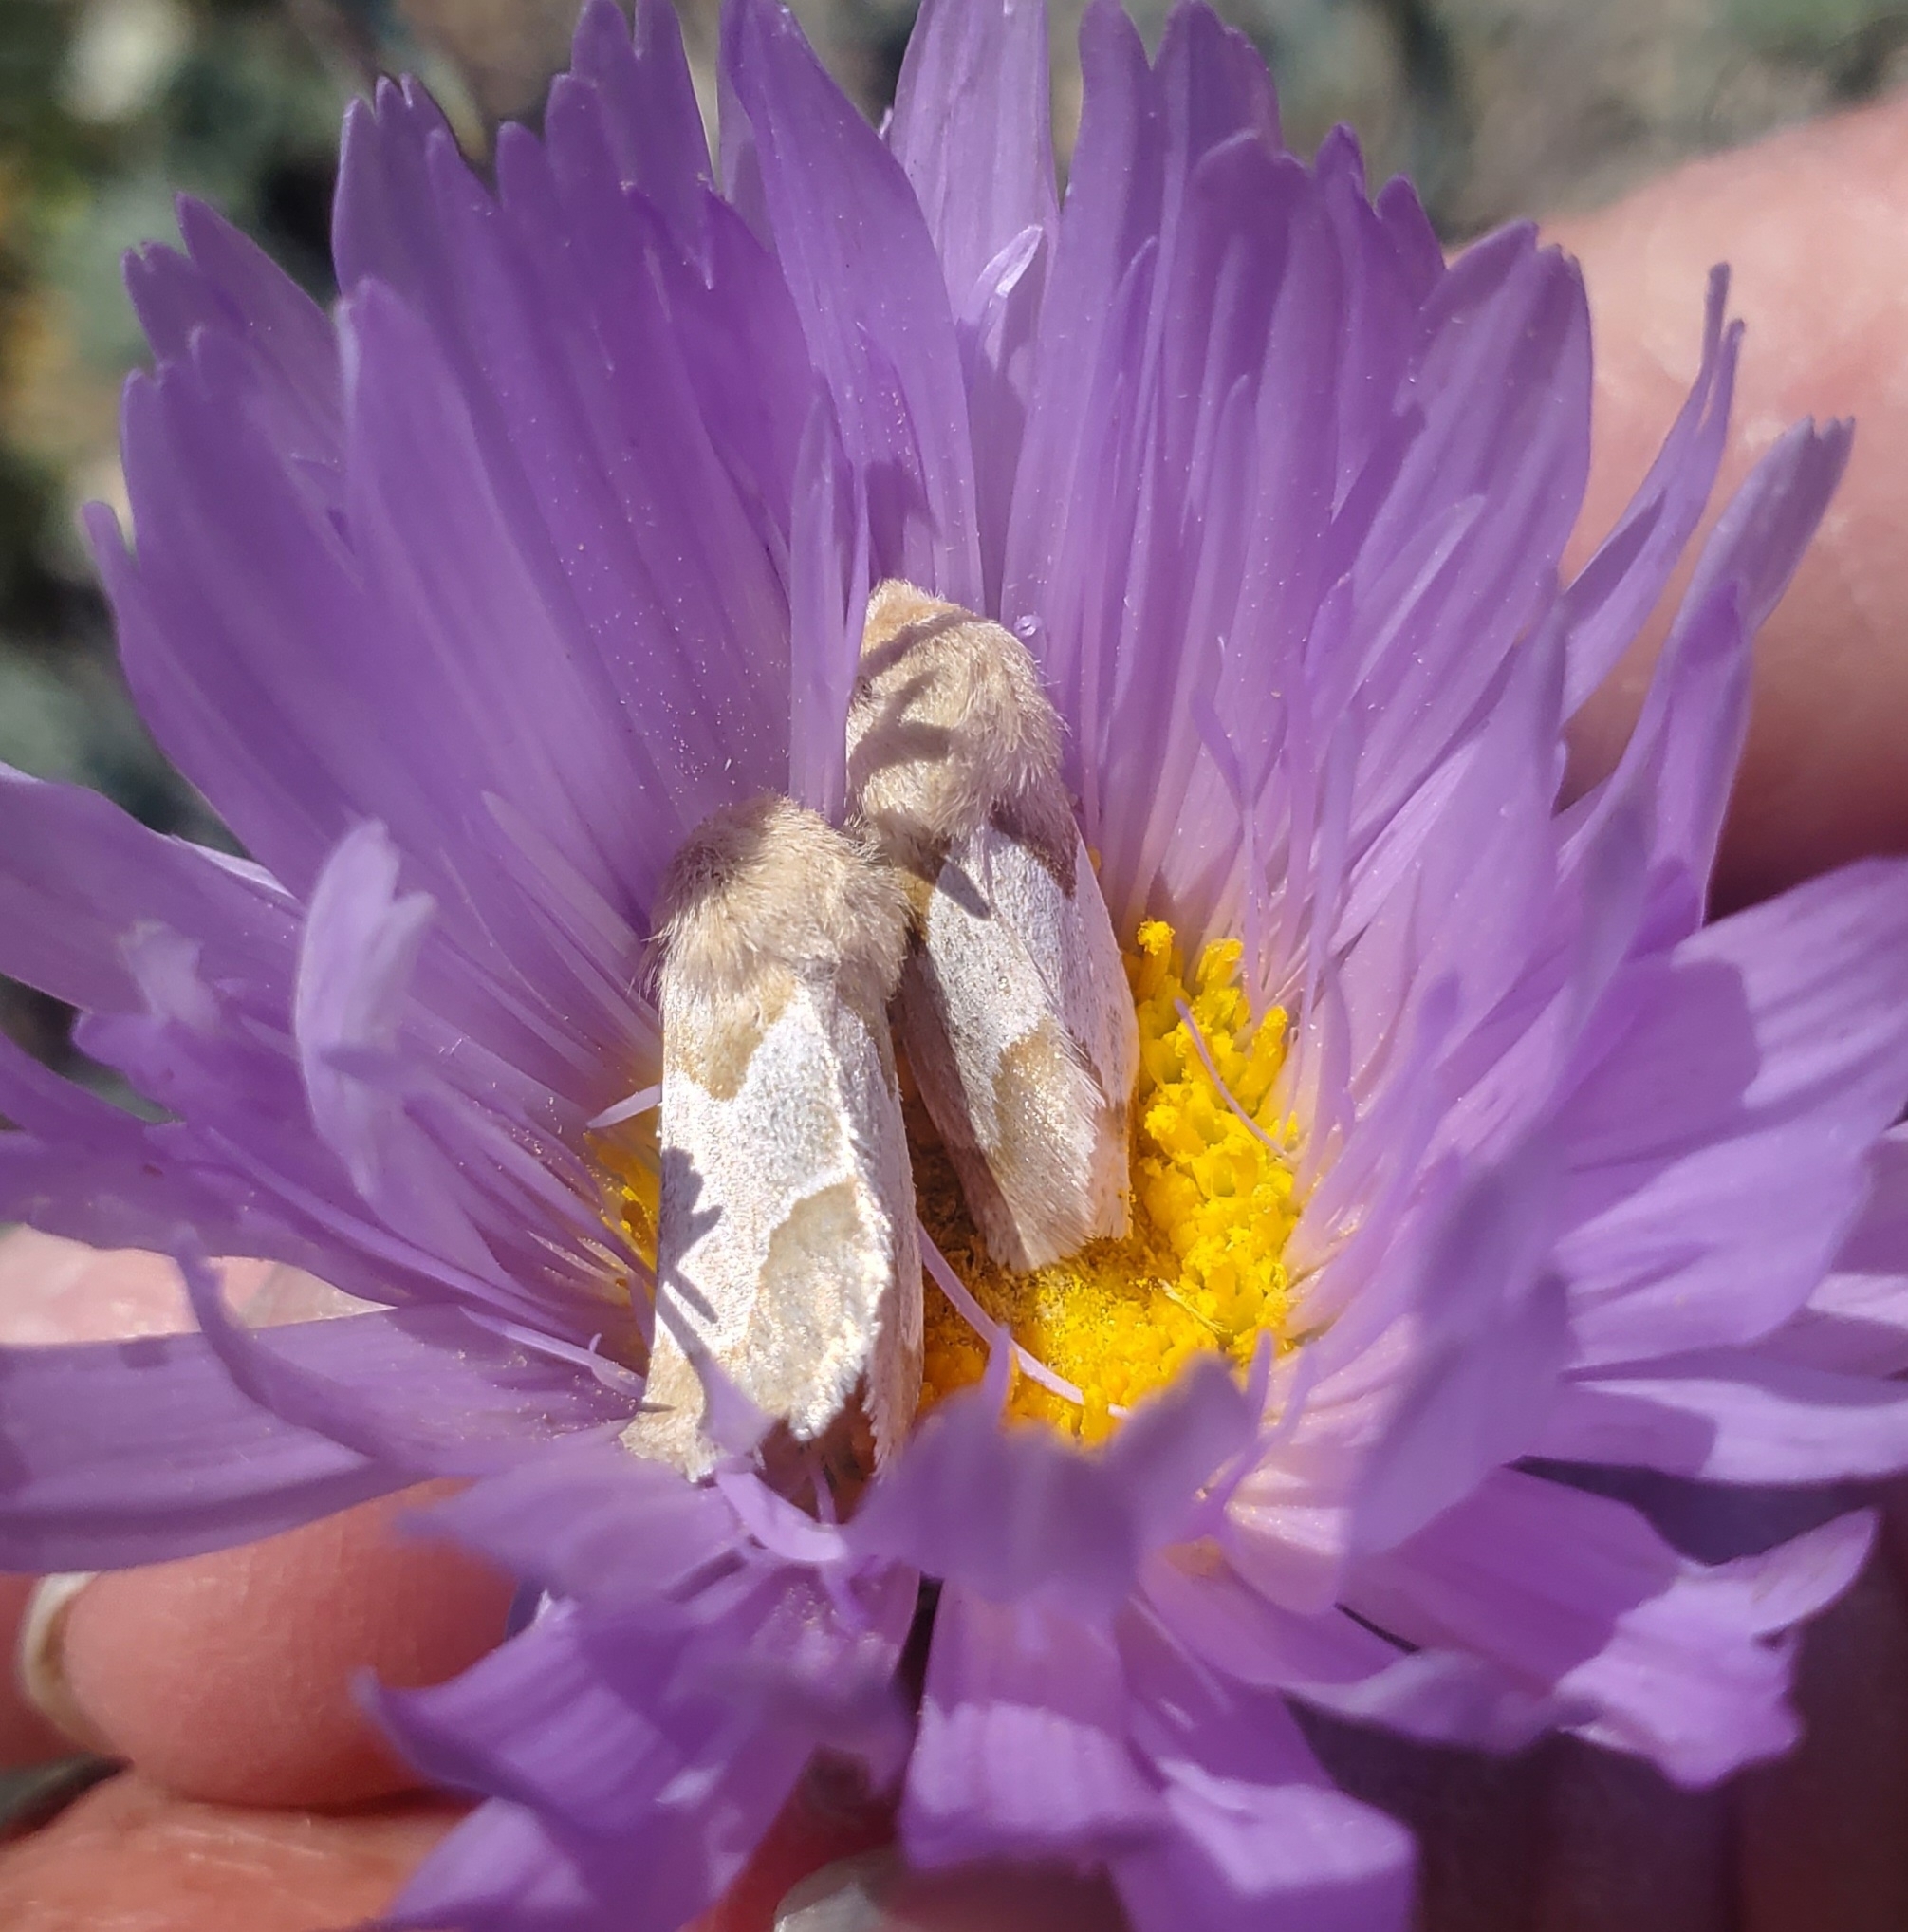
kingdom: Animalia
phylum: Arthropoda
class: Insecta
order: Lepidoptera
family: Noctuidae
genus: Schinia
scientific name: Schinia ligeae
